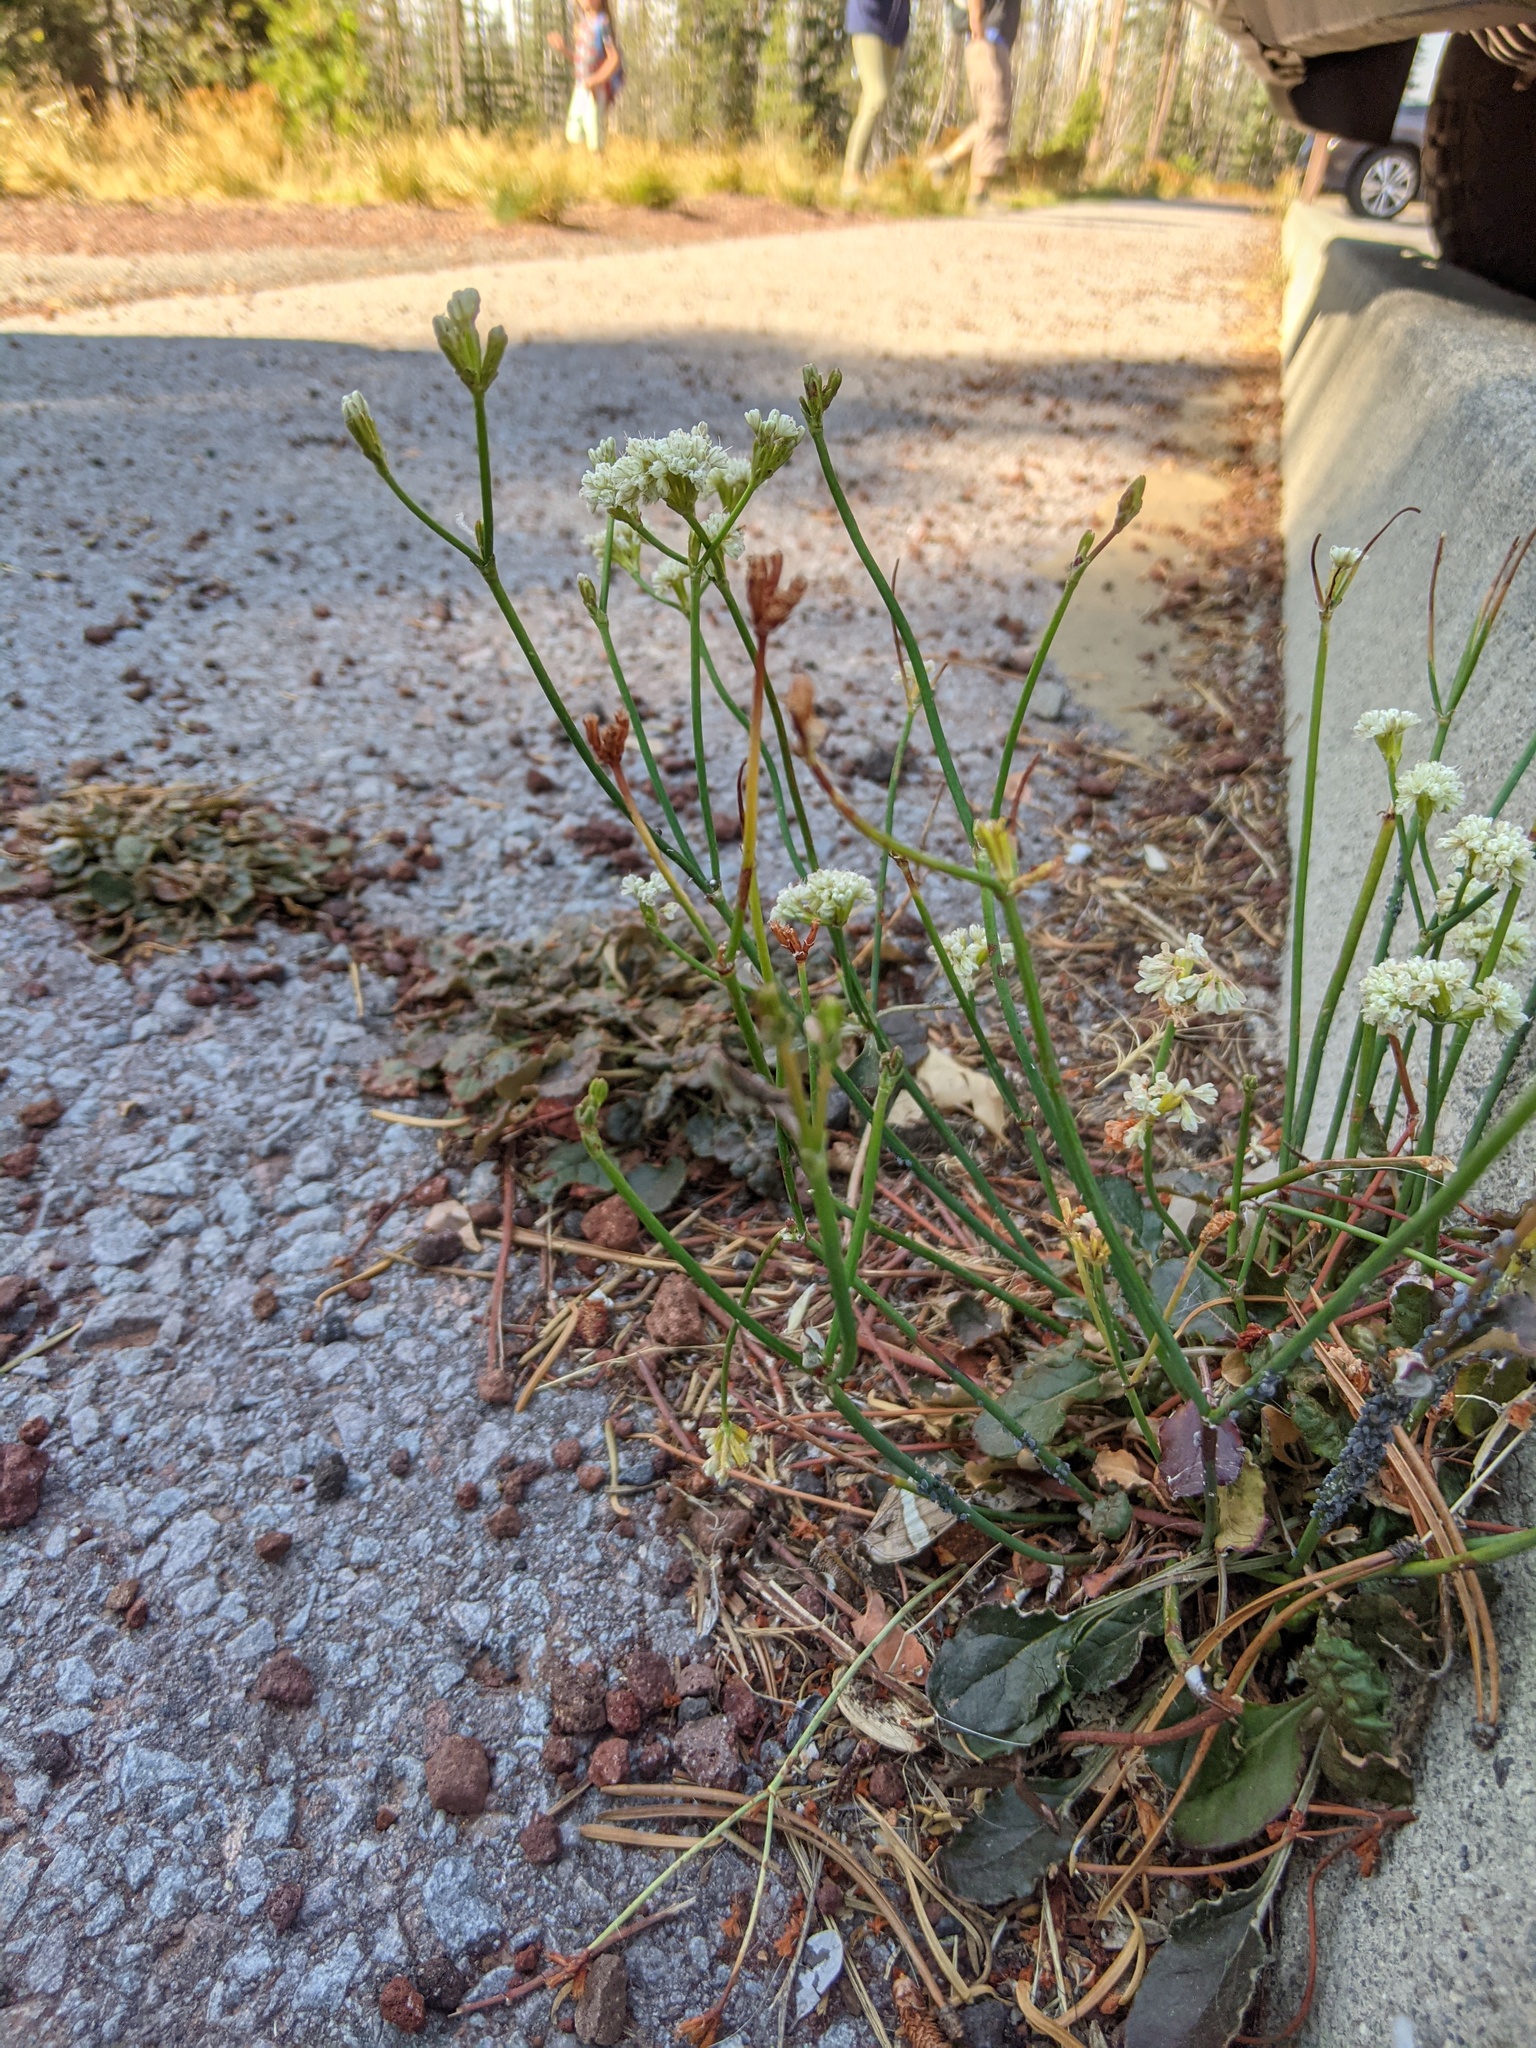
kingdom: Plantae
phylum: Tracheophyta
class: Magnoliopsida
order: Caryophyllales
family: Polygonaceae
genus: Eriogonum
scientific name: Eriogonum nudum
